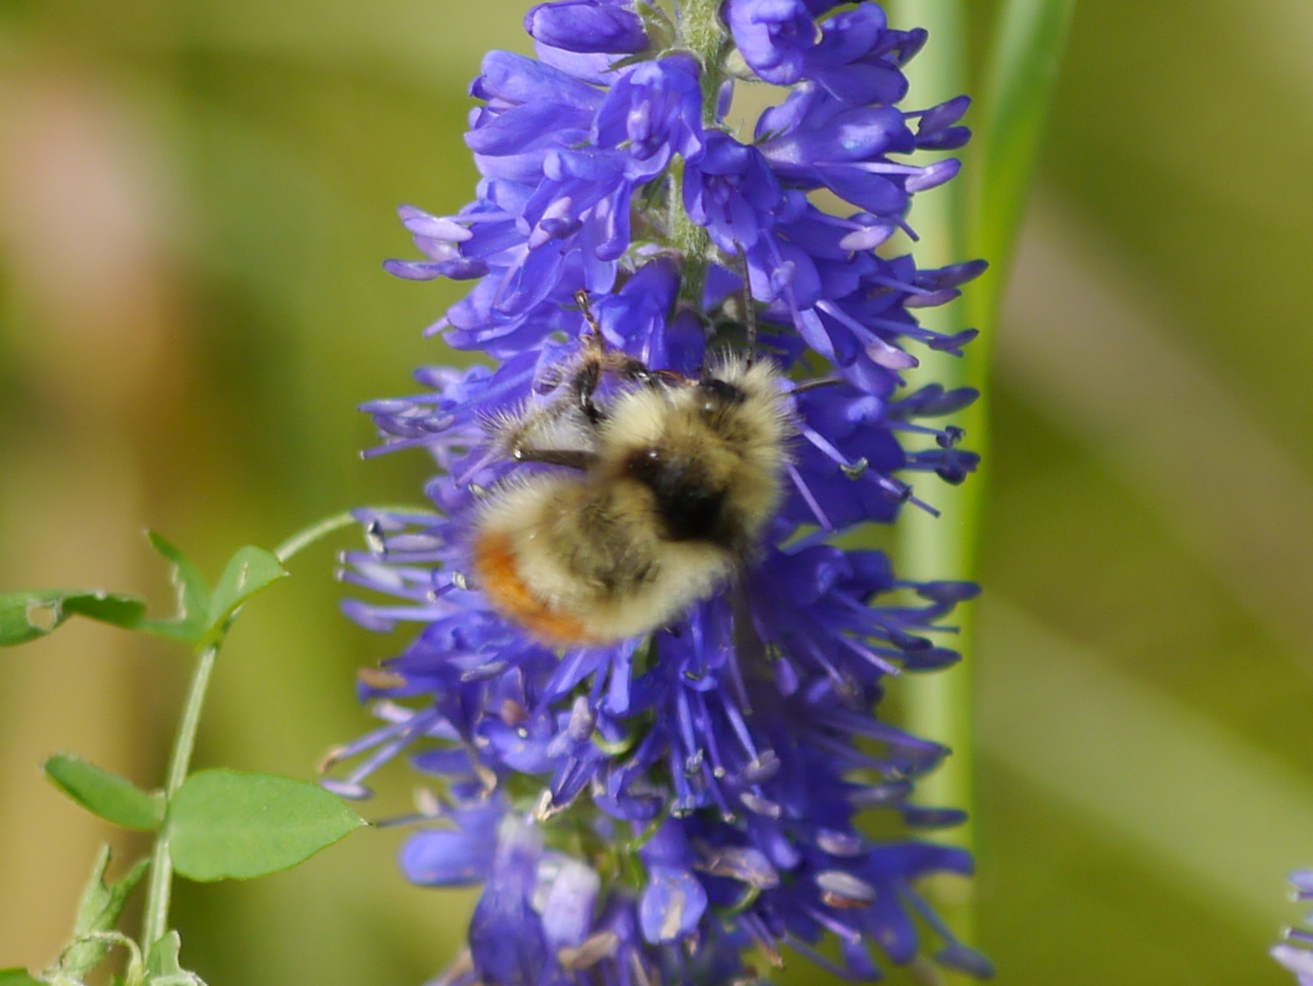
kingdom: Animalia
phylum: Arthropoda
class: Insecta
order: Hymenoptera
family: Apidae
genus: Bombus
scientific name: Bombus flavifrons
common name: Yellow head bumble bee
